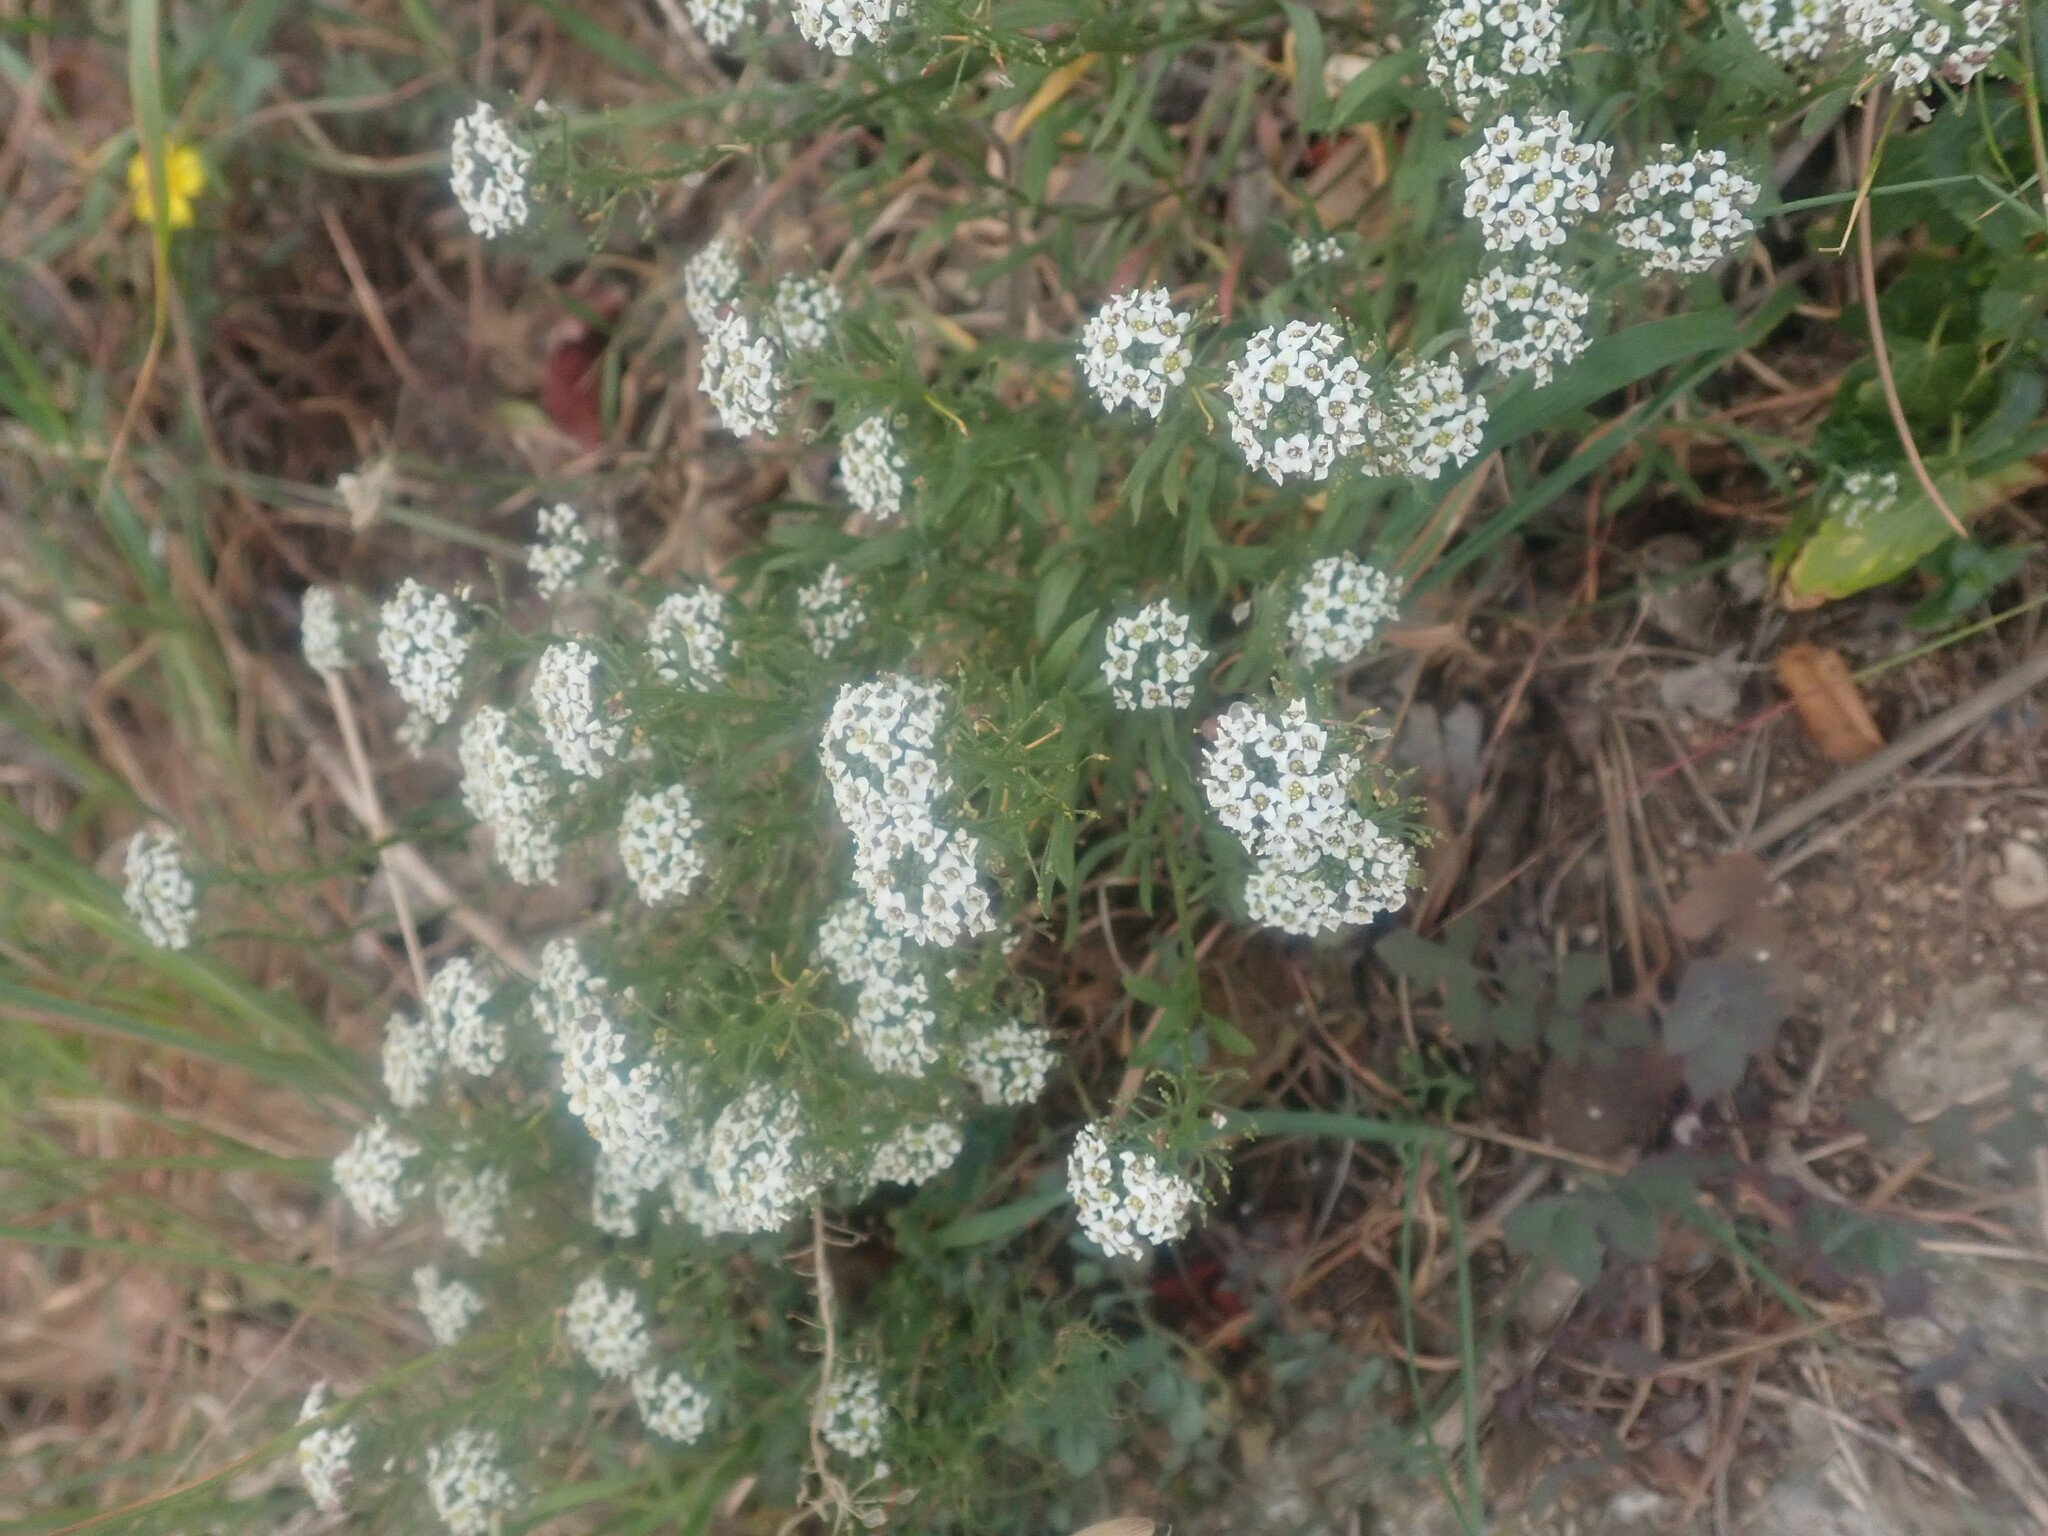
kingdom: Plantae
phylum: Tracheophyta
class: Magnoliopsida
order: Brassicales
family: Brassicaceae
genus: Lobularia
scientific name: Lobularia maritima
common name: Sweet alison
